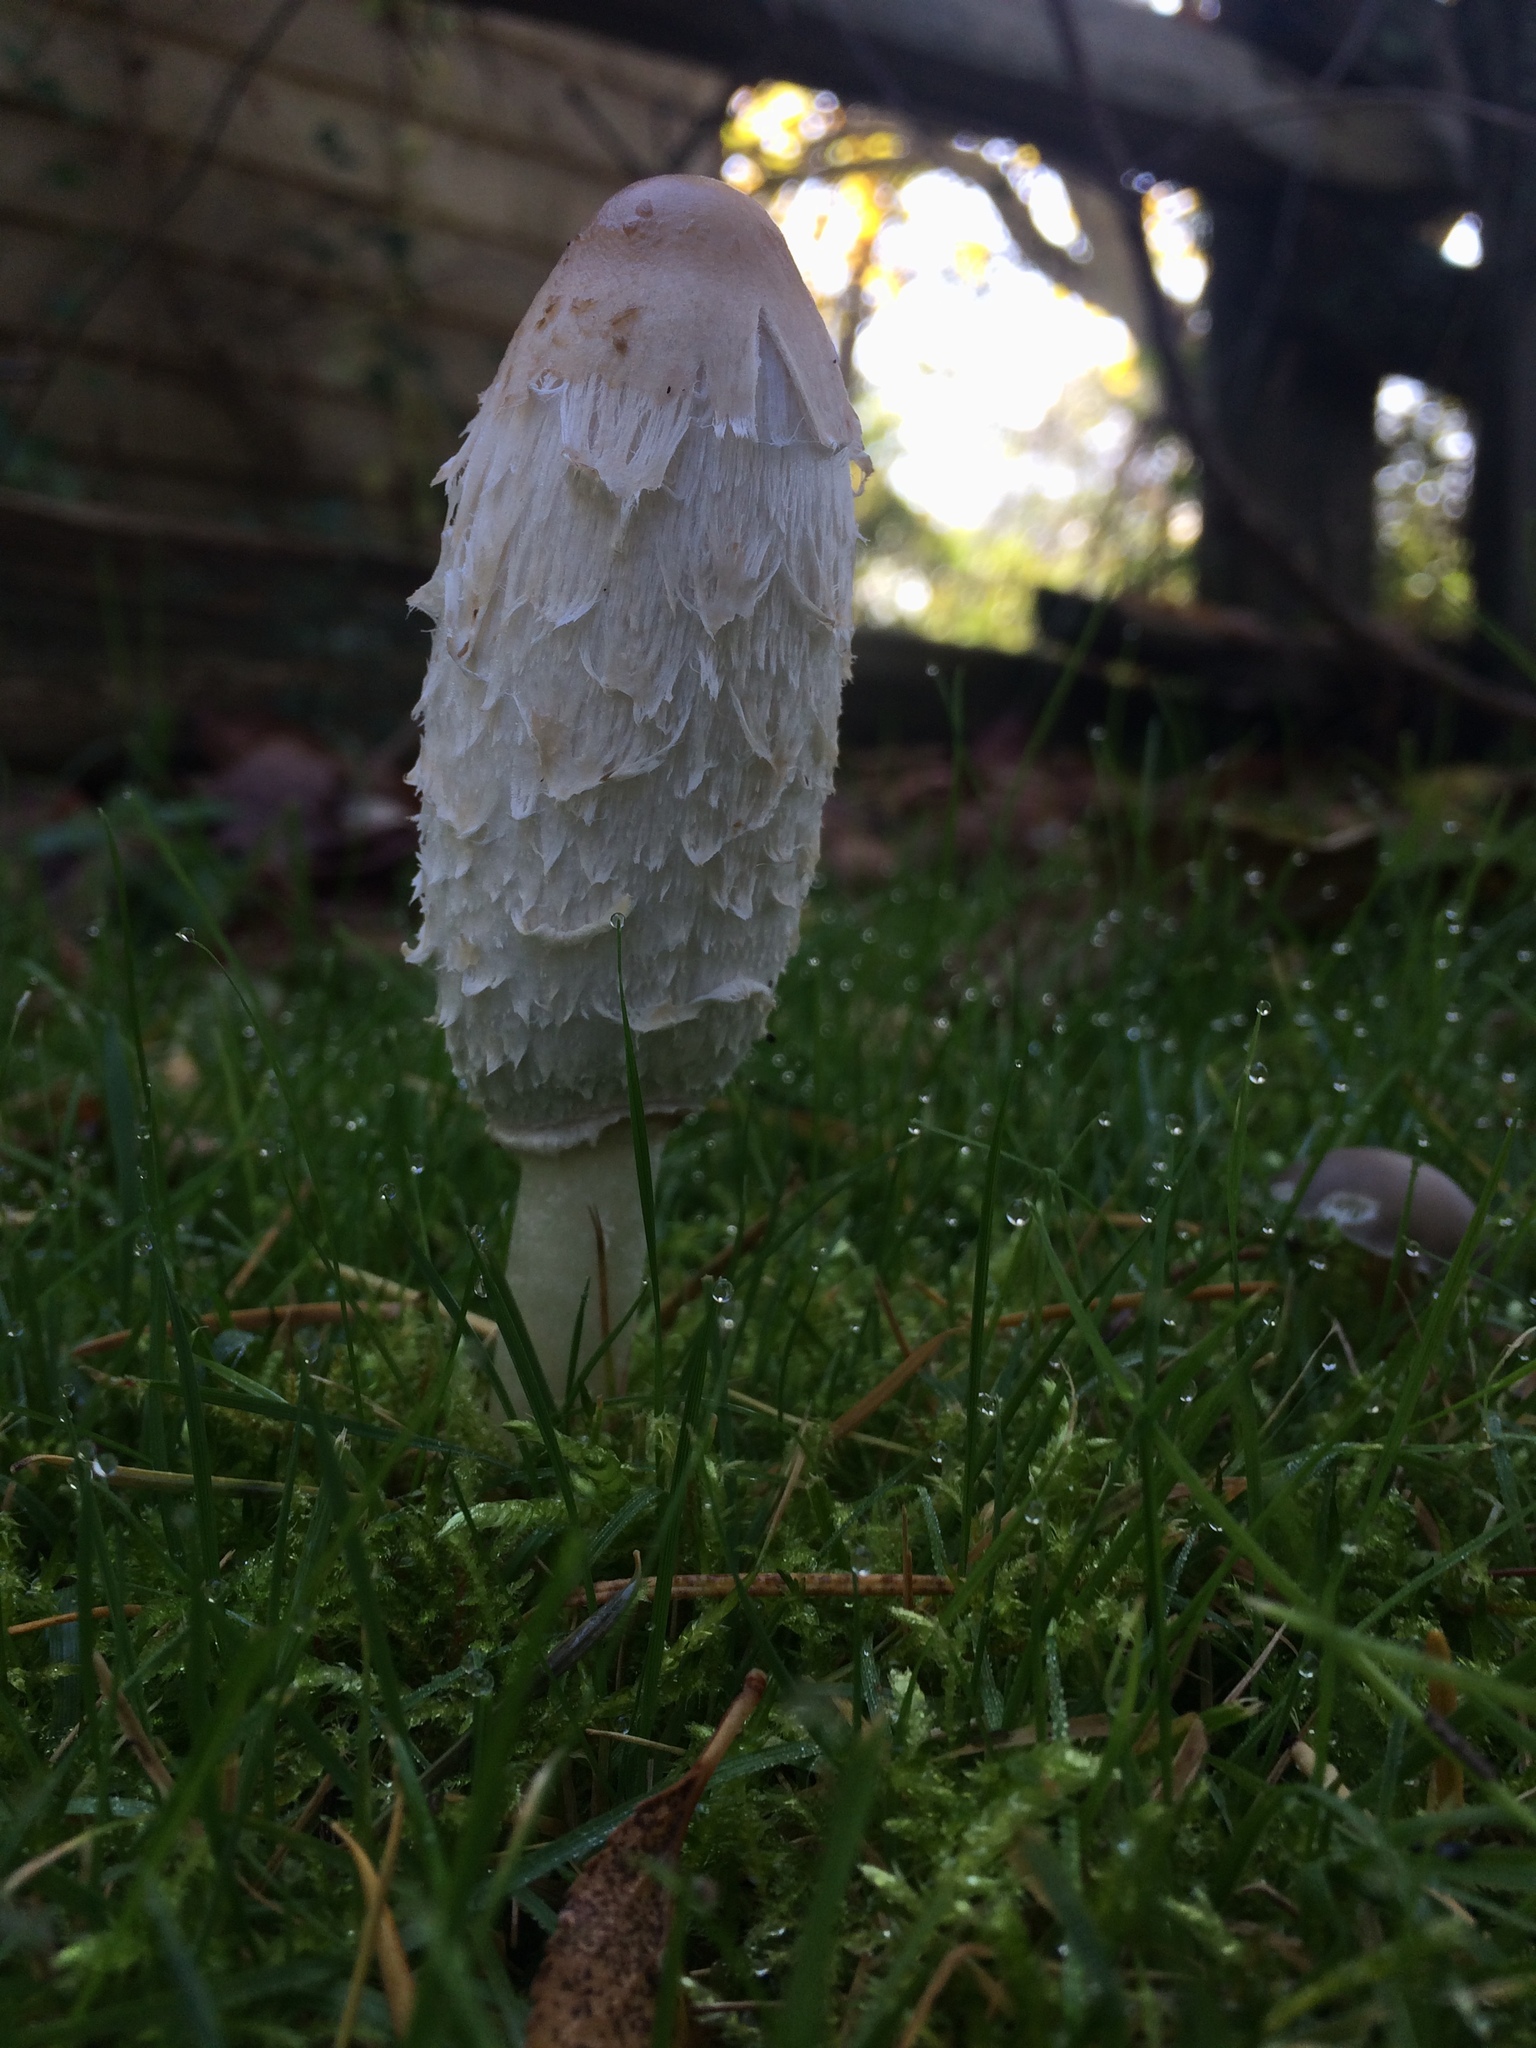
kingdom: Fungi
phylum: Basidiomycota
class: Agaricomycetes
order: Agaricales
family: Agaricaceae
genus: Coprinus
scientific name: Coprinus comatus
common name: Lawyer's wig
